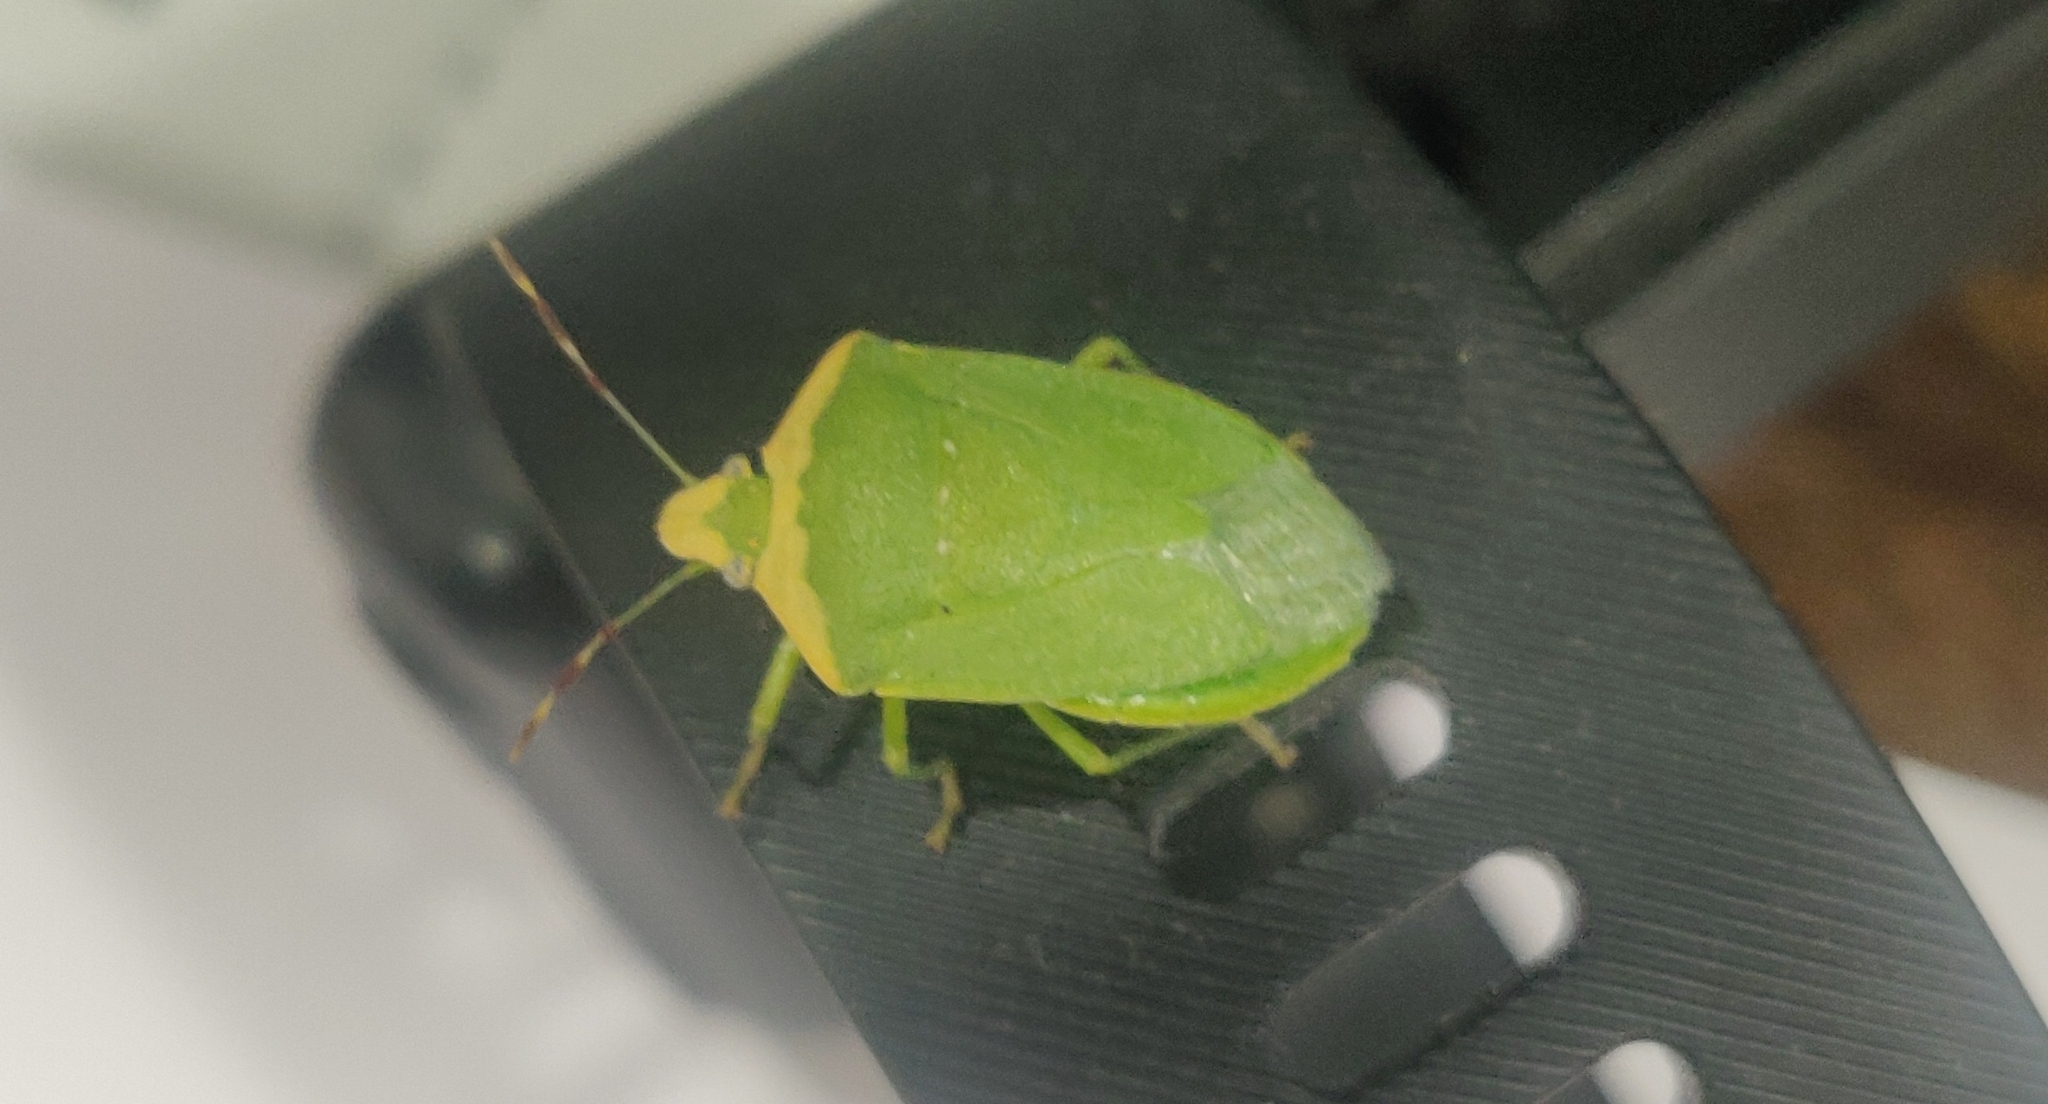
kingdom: Animalia
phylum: Arthropoda
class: Insecta
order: Hemiptera
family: Pentatomidae
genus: Nezara
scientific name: Nezara viridula
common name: Southern green stink bug
